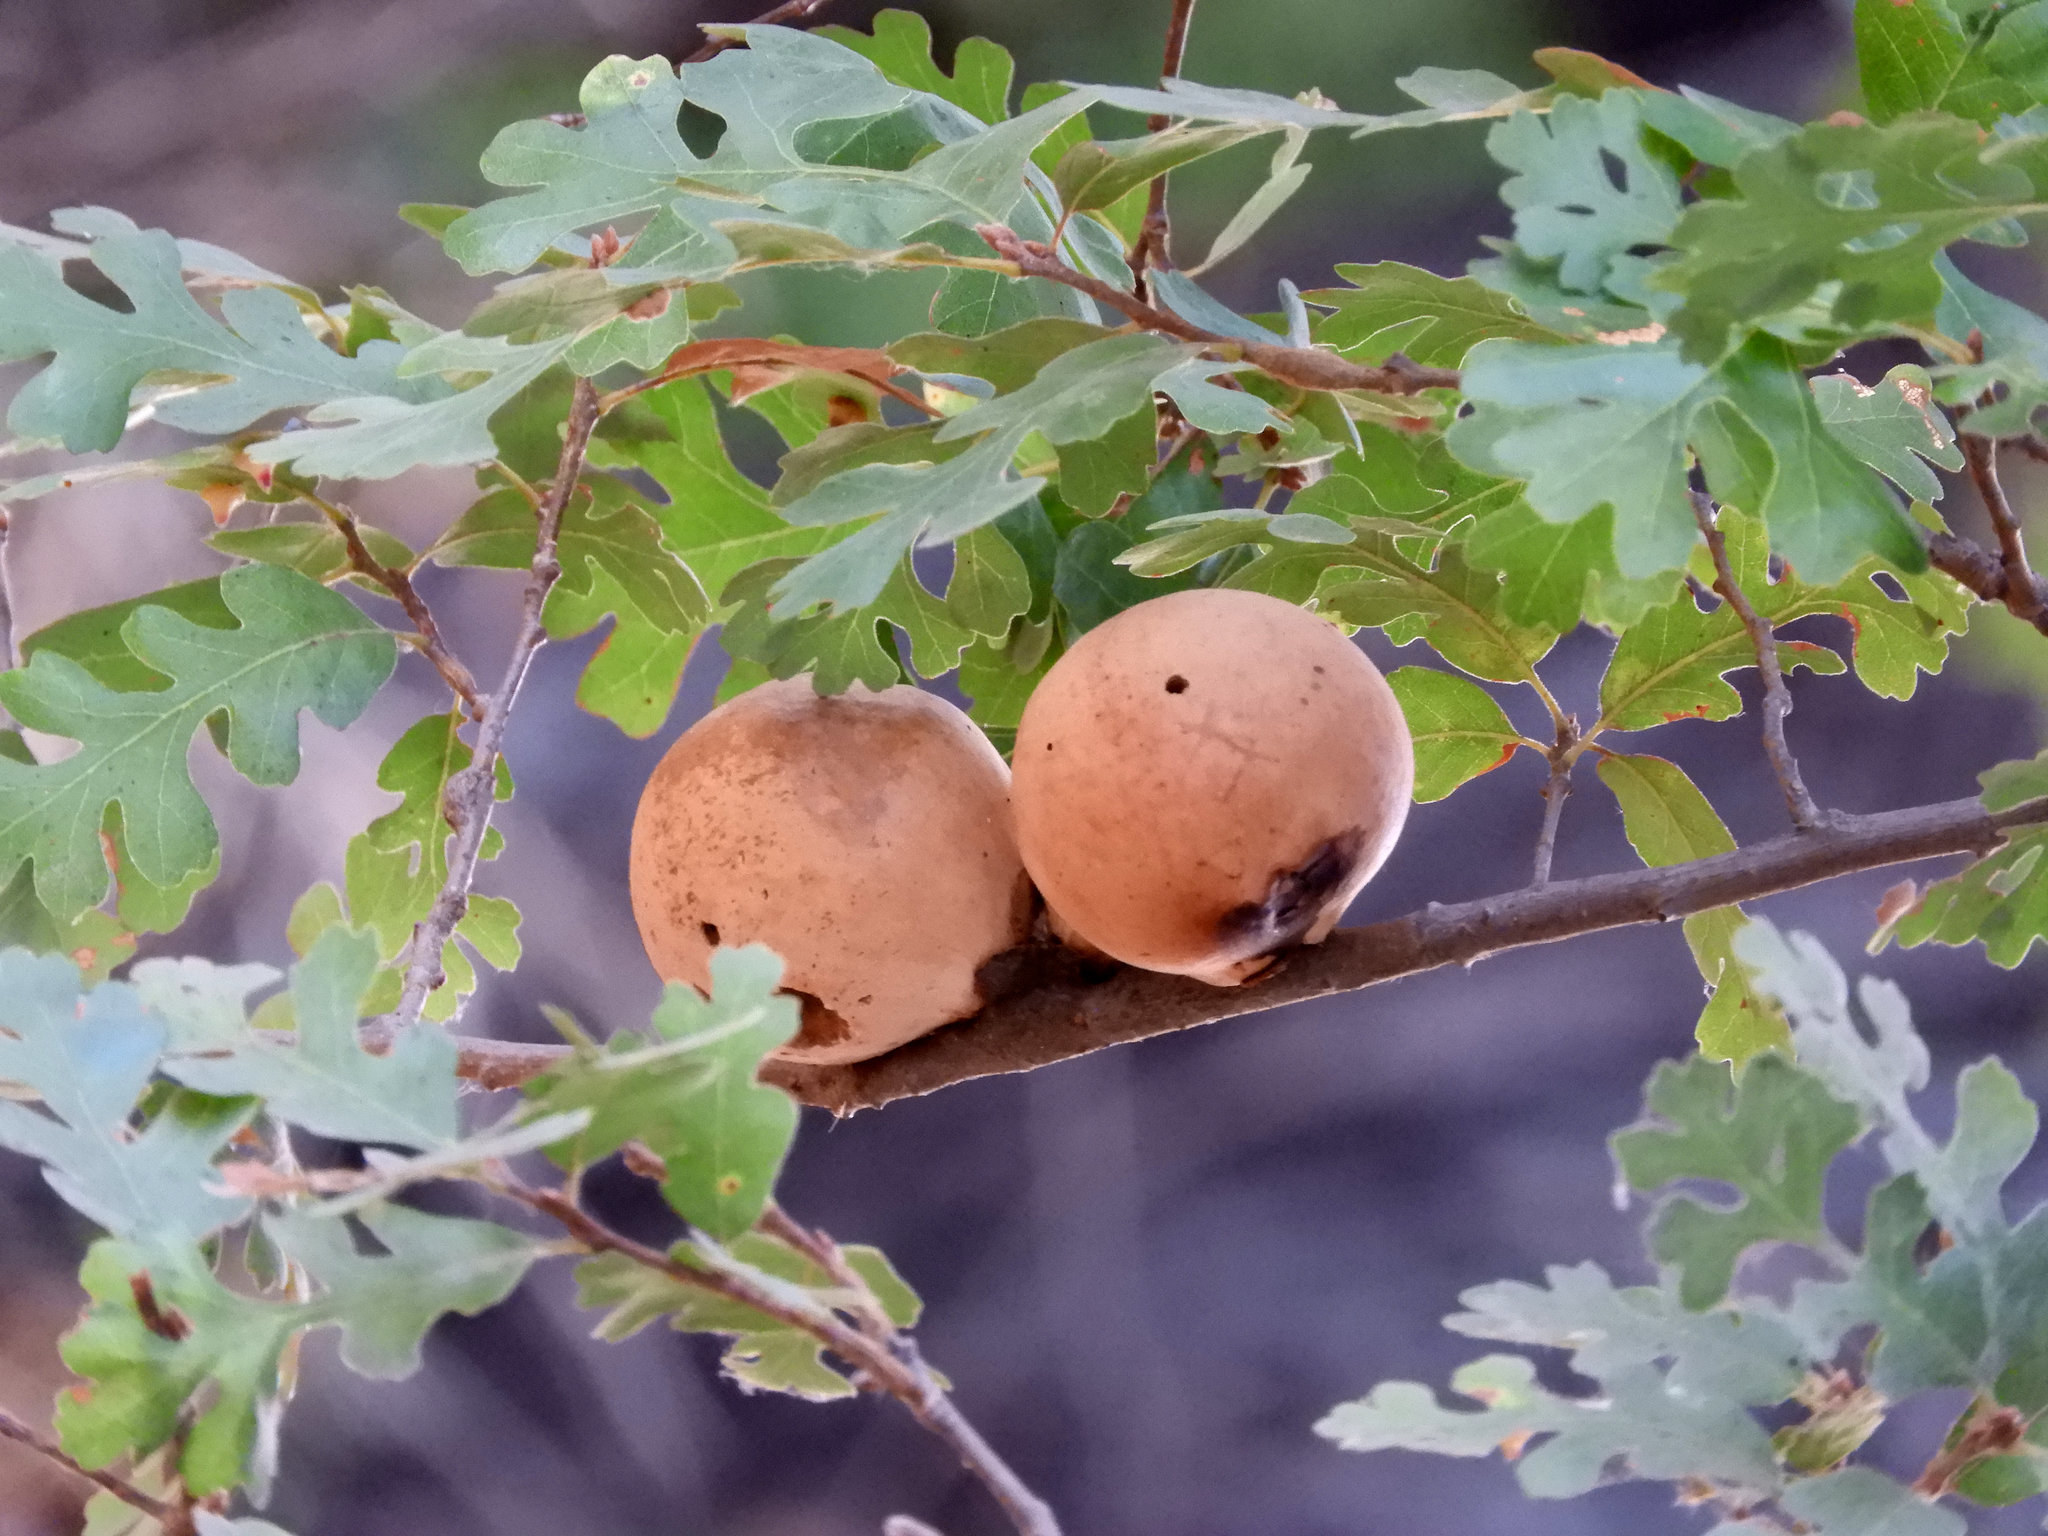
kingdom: Animalia
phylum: Arthropoda
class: Insecta
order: Hymenoptera
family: Cynipidae
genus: Andricus
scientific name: Andricus quercuscalifornicus
